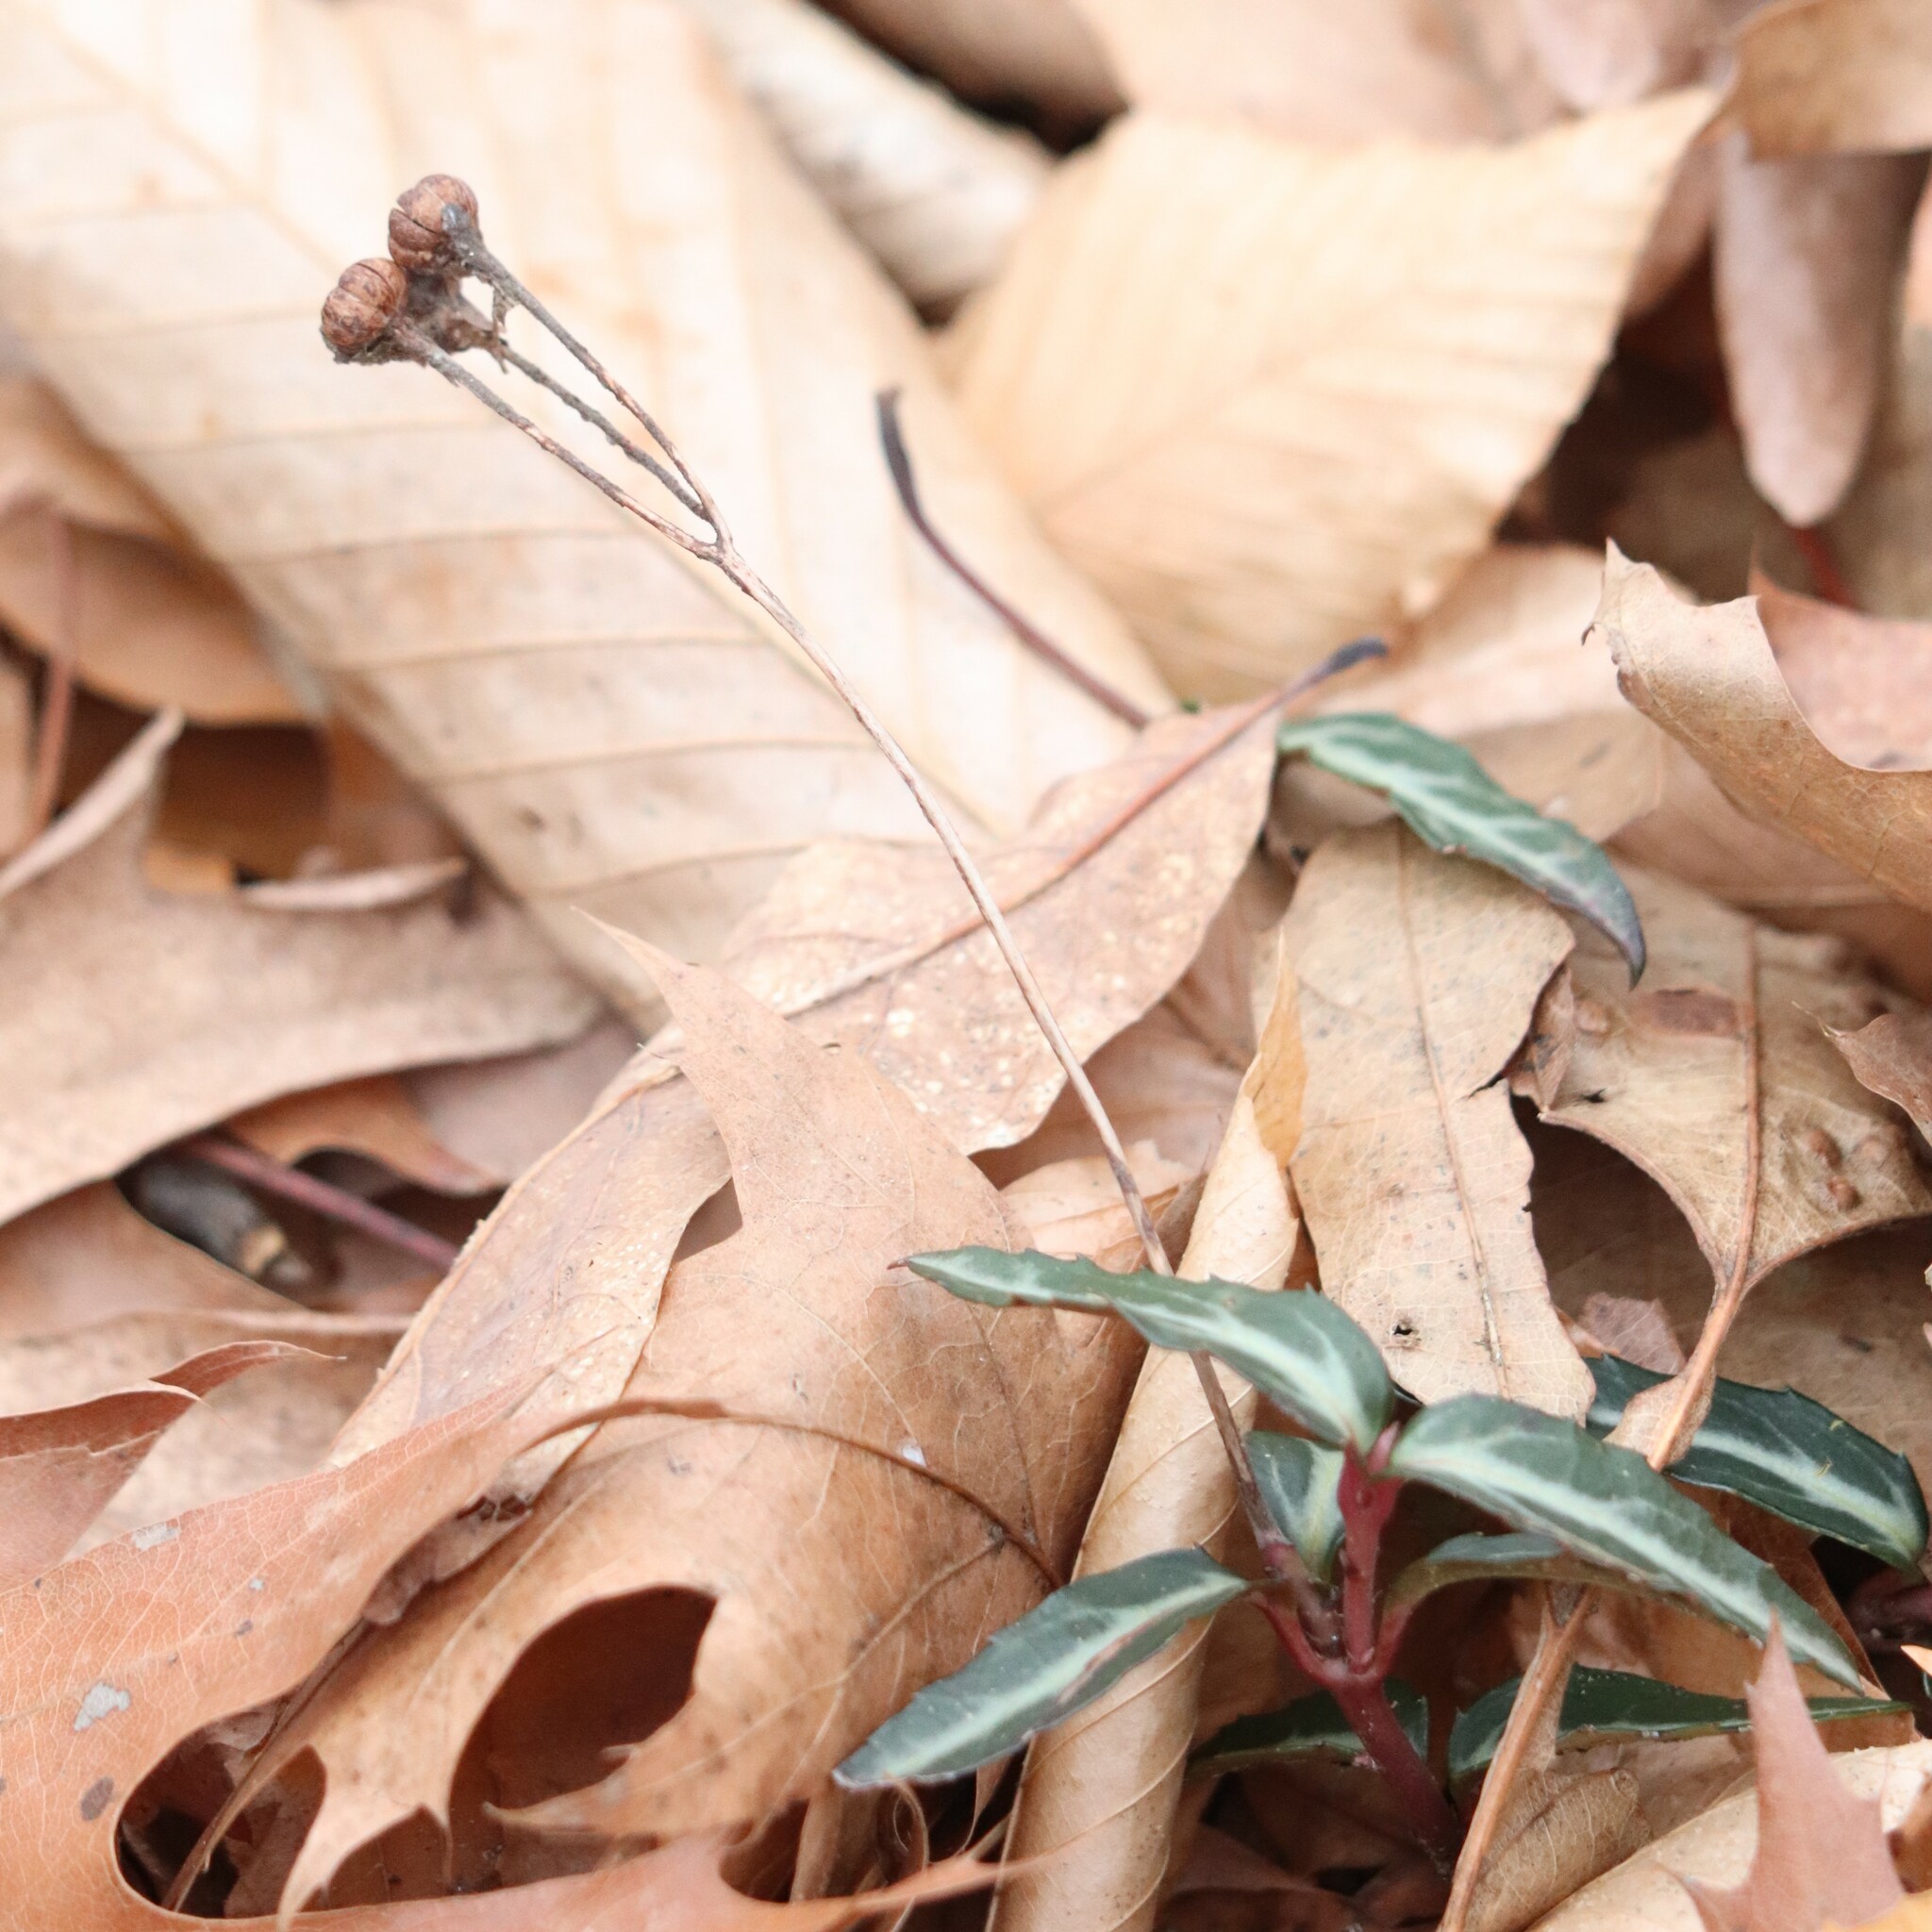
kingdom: Plantae
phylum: Tracheophyta
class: Magnoliopsida
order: Ericales
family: Ericaceae
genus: Chimaphila
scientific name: Chimaphila maculata
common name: Spotted pipsissewa
